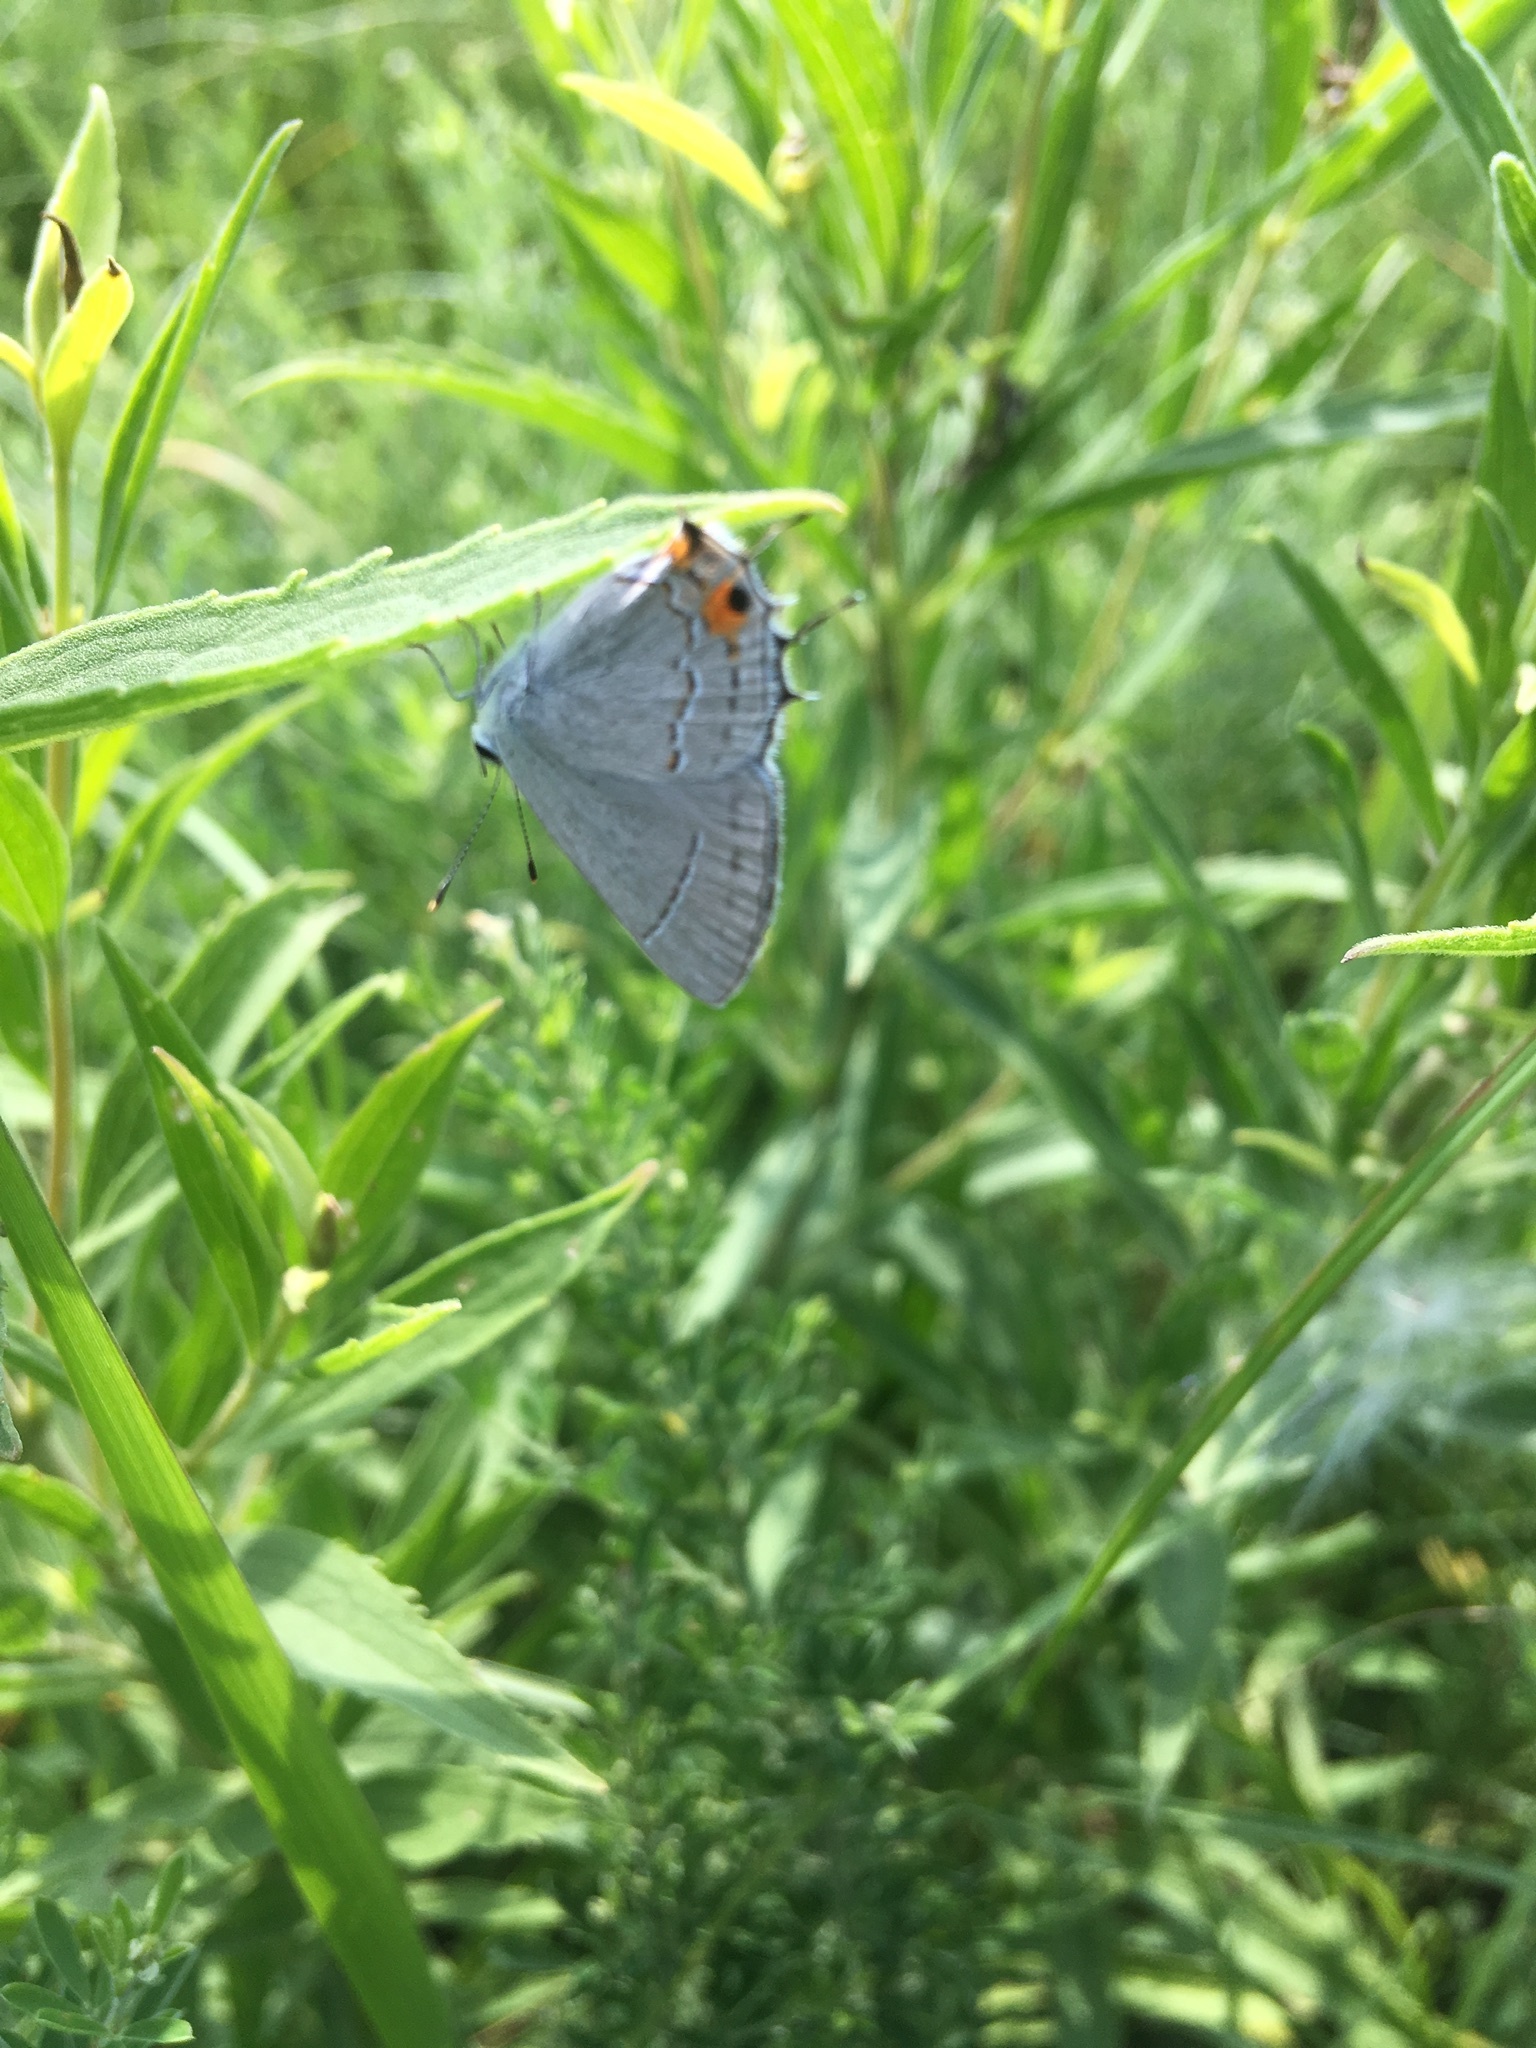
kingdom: Animalia
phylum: Arthropoda
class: Insecta
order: Lepidoptera
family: Lycaenidae
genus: Strymon
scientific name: Strymon melinus
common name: Gray hairstreak
